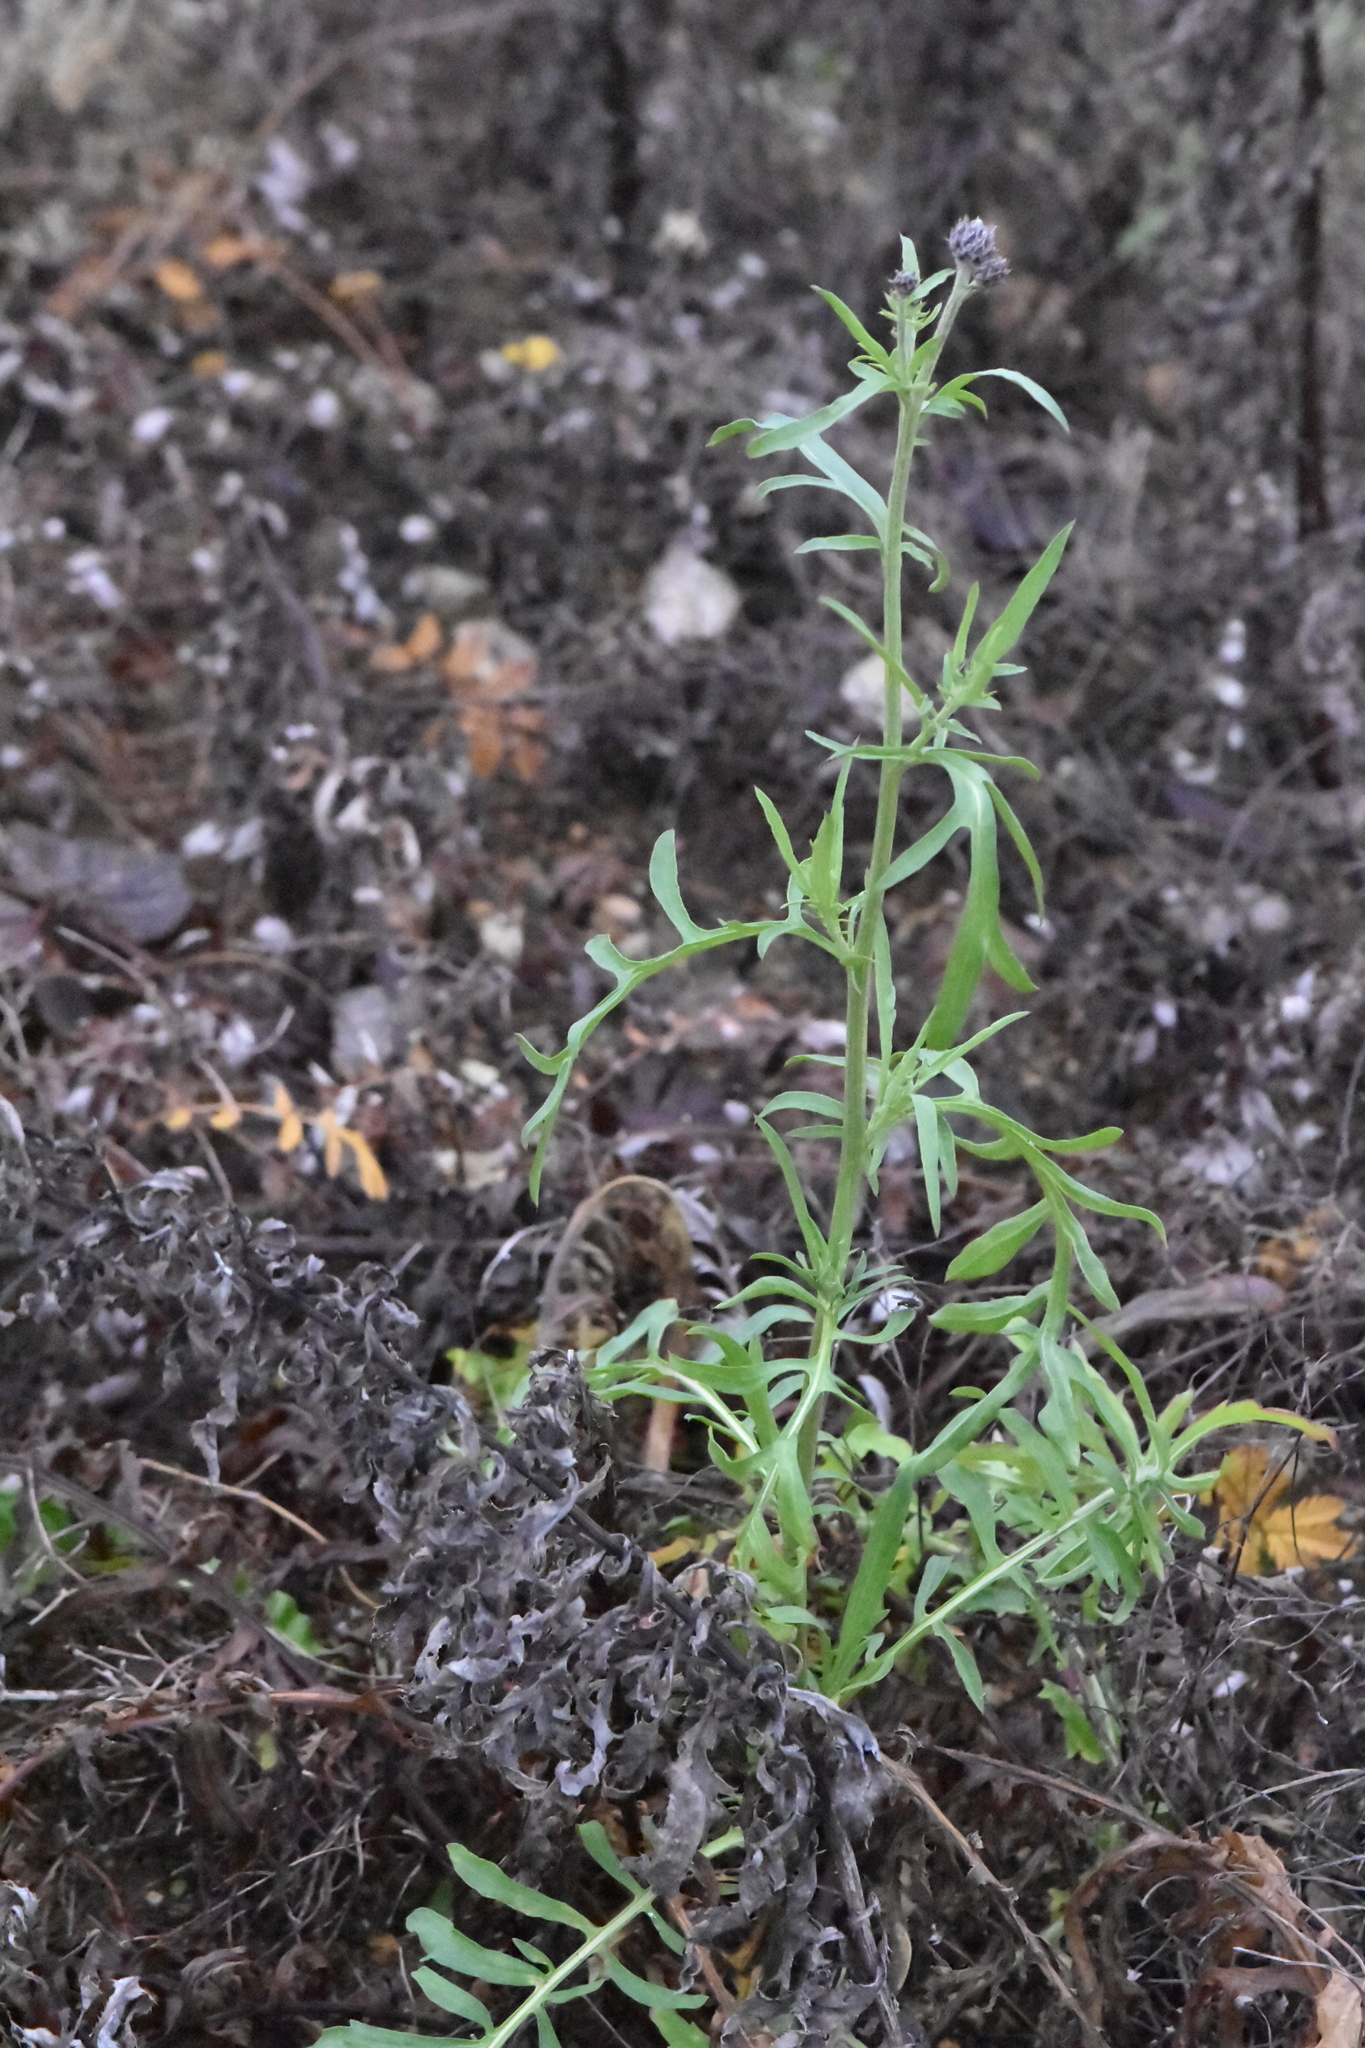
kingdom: Plantae
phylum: Tracheophyta
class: Magnoliopsida
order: Asterales
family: Asteraceae
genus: Centaurea
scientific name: Centaurea scabiosa
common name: Greater knapweed
